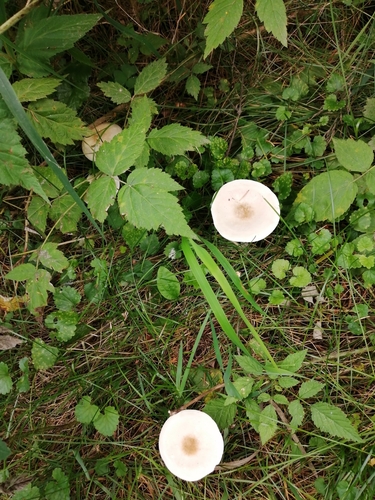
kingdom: Fungi
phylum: Basidiomycota
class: Agaricomycetes
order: Agaricales
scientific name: Agaricales
